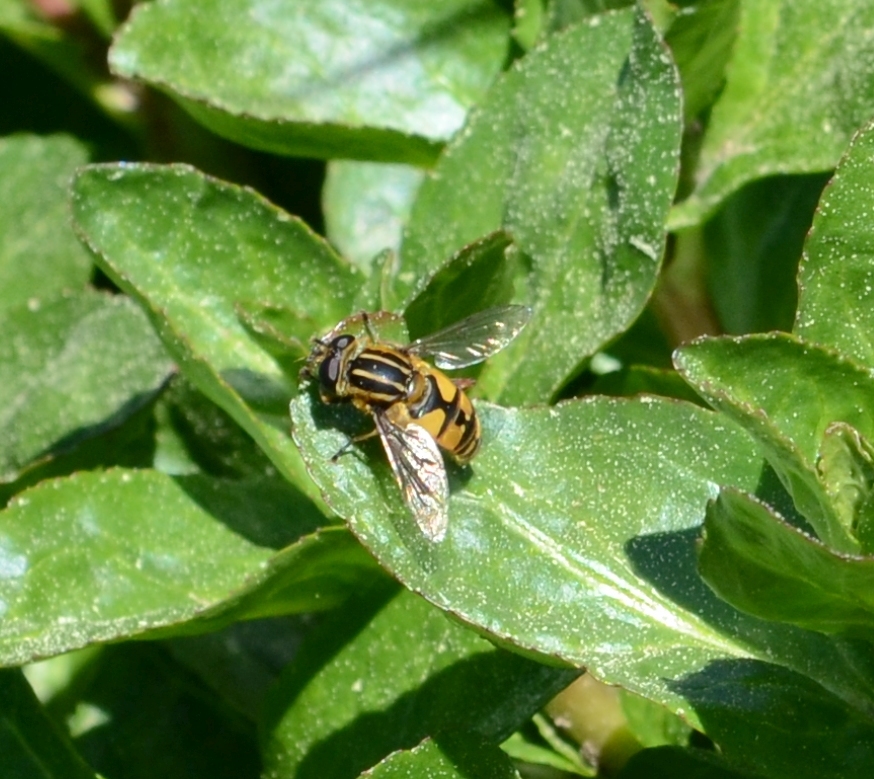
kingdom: Animalia
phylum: Arthropoda
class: Insecta
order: Diptera
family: Syrphidae
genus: Helophilus
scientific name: Helophilus pendulus
